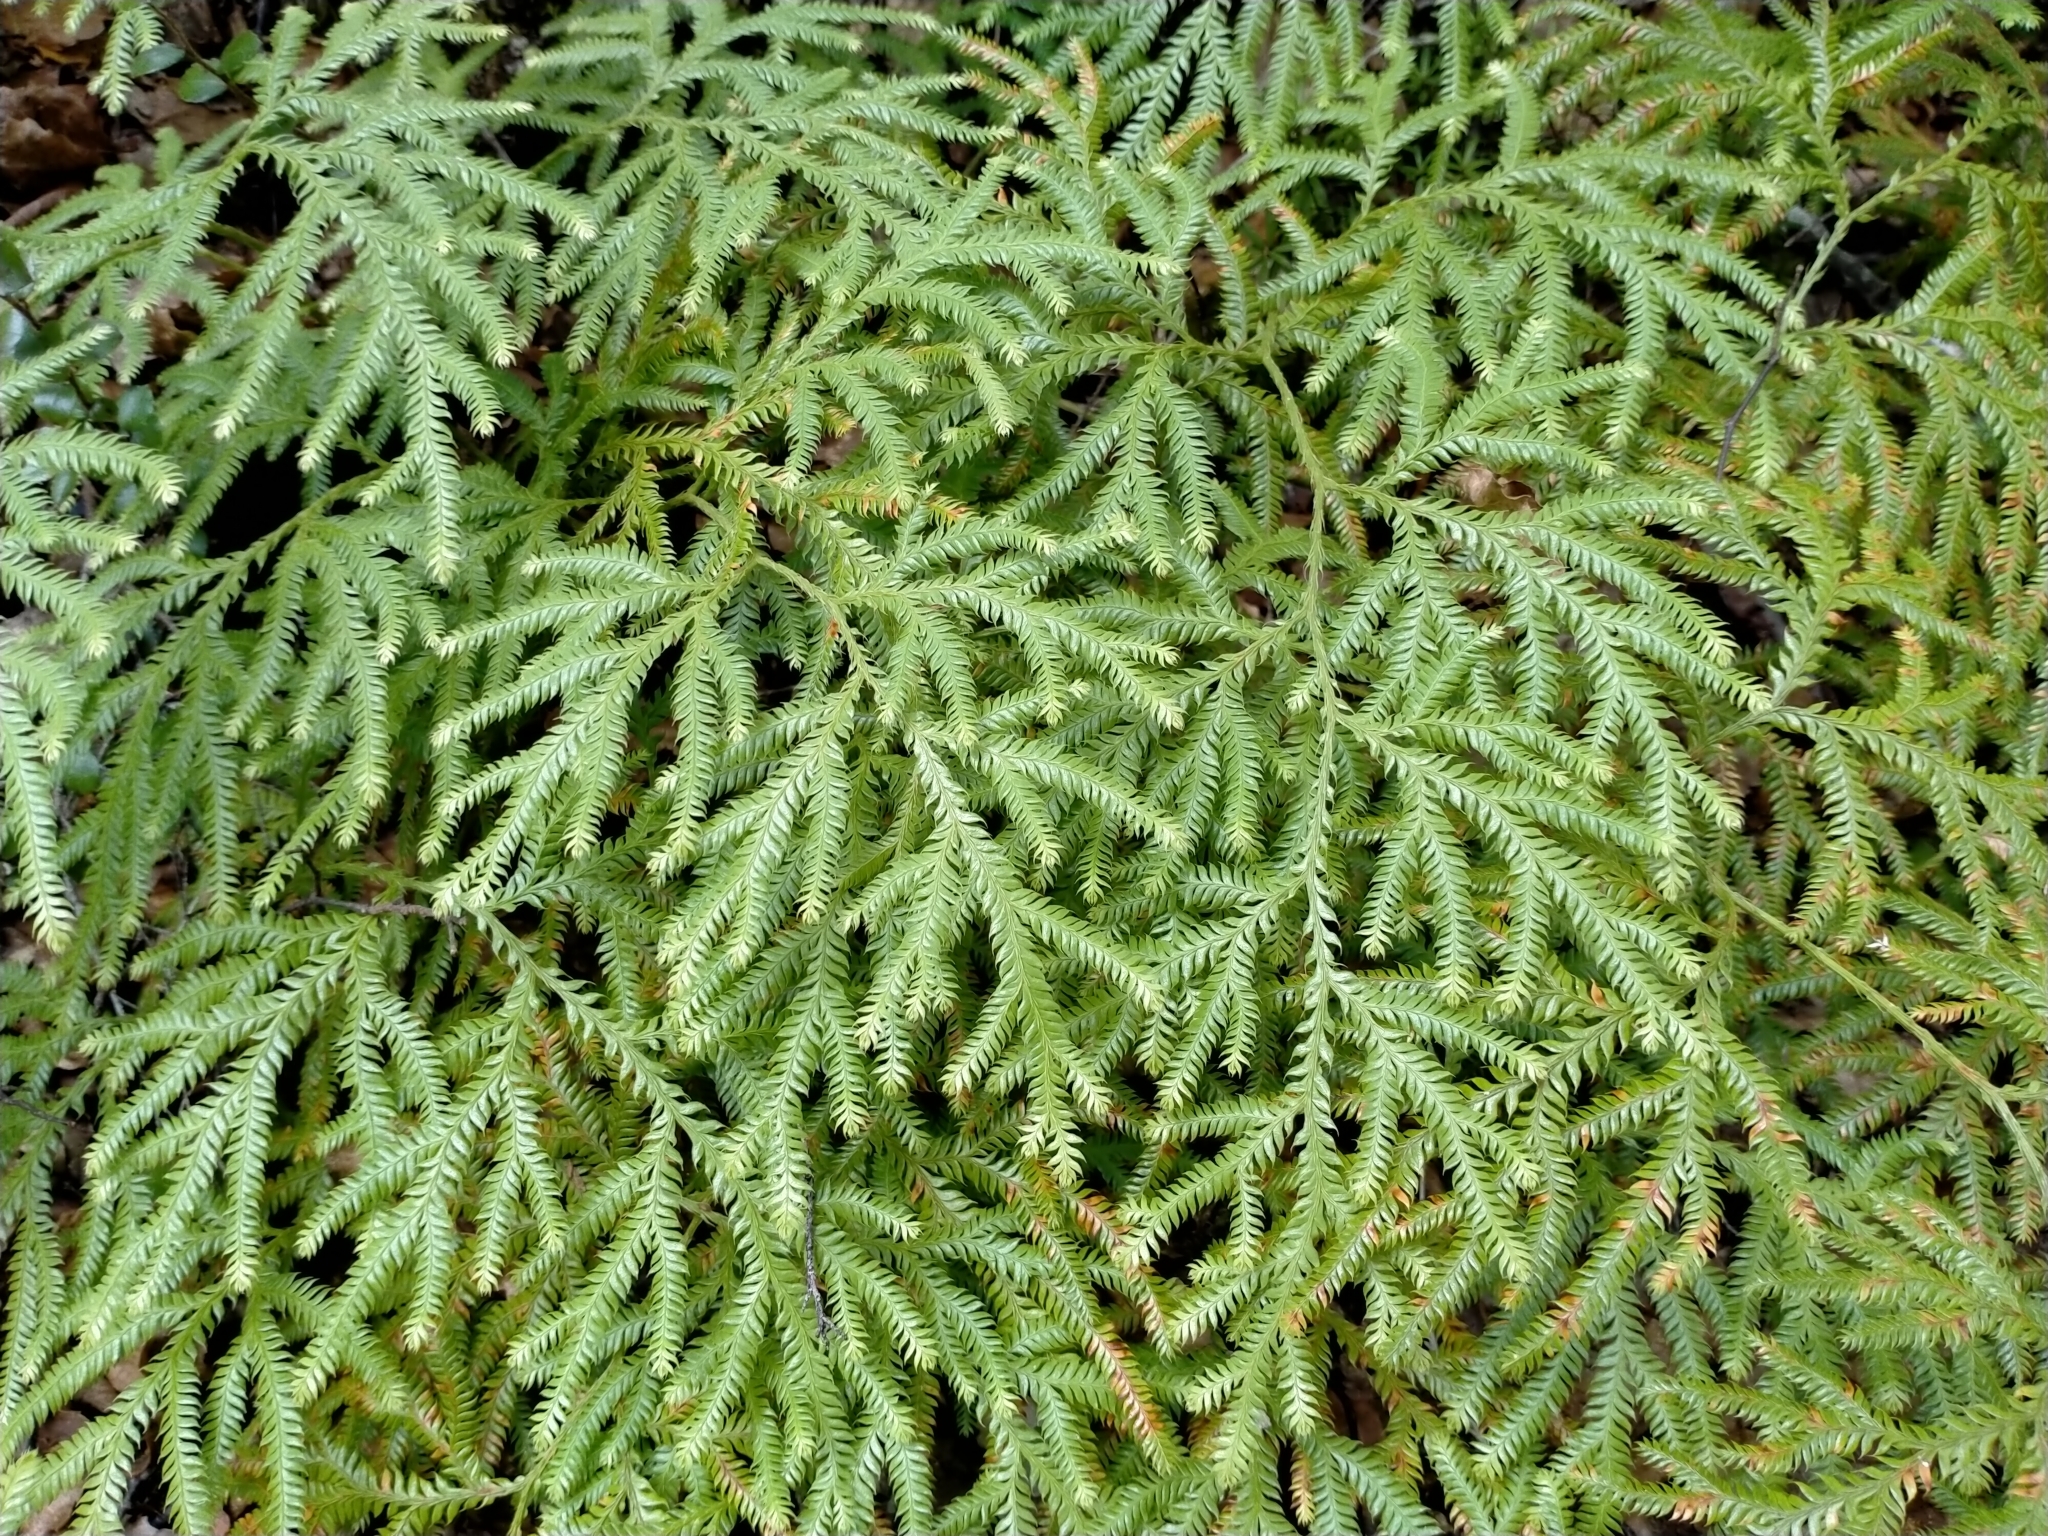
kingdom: Plantae
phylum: Tracheophyta
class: Lycopodiopsida
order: Lycopodiales
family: Lycopodiaceae
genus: Lycopodium
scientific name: Lycopodium volubile
